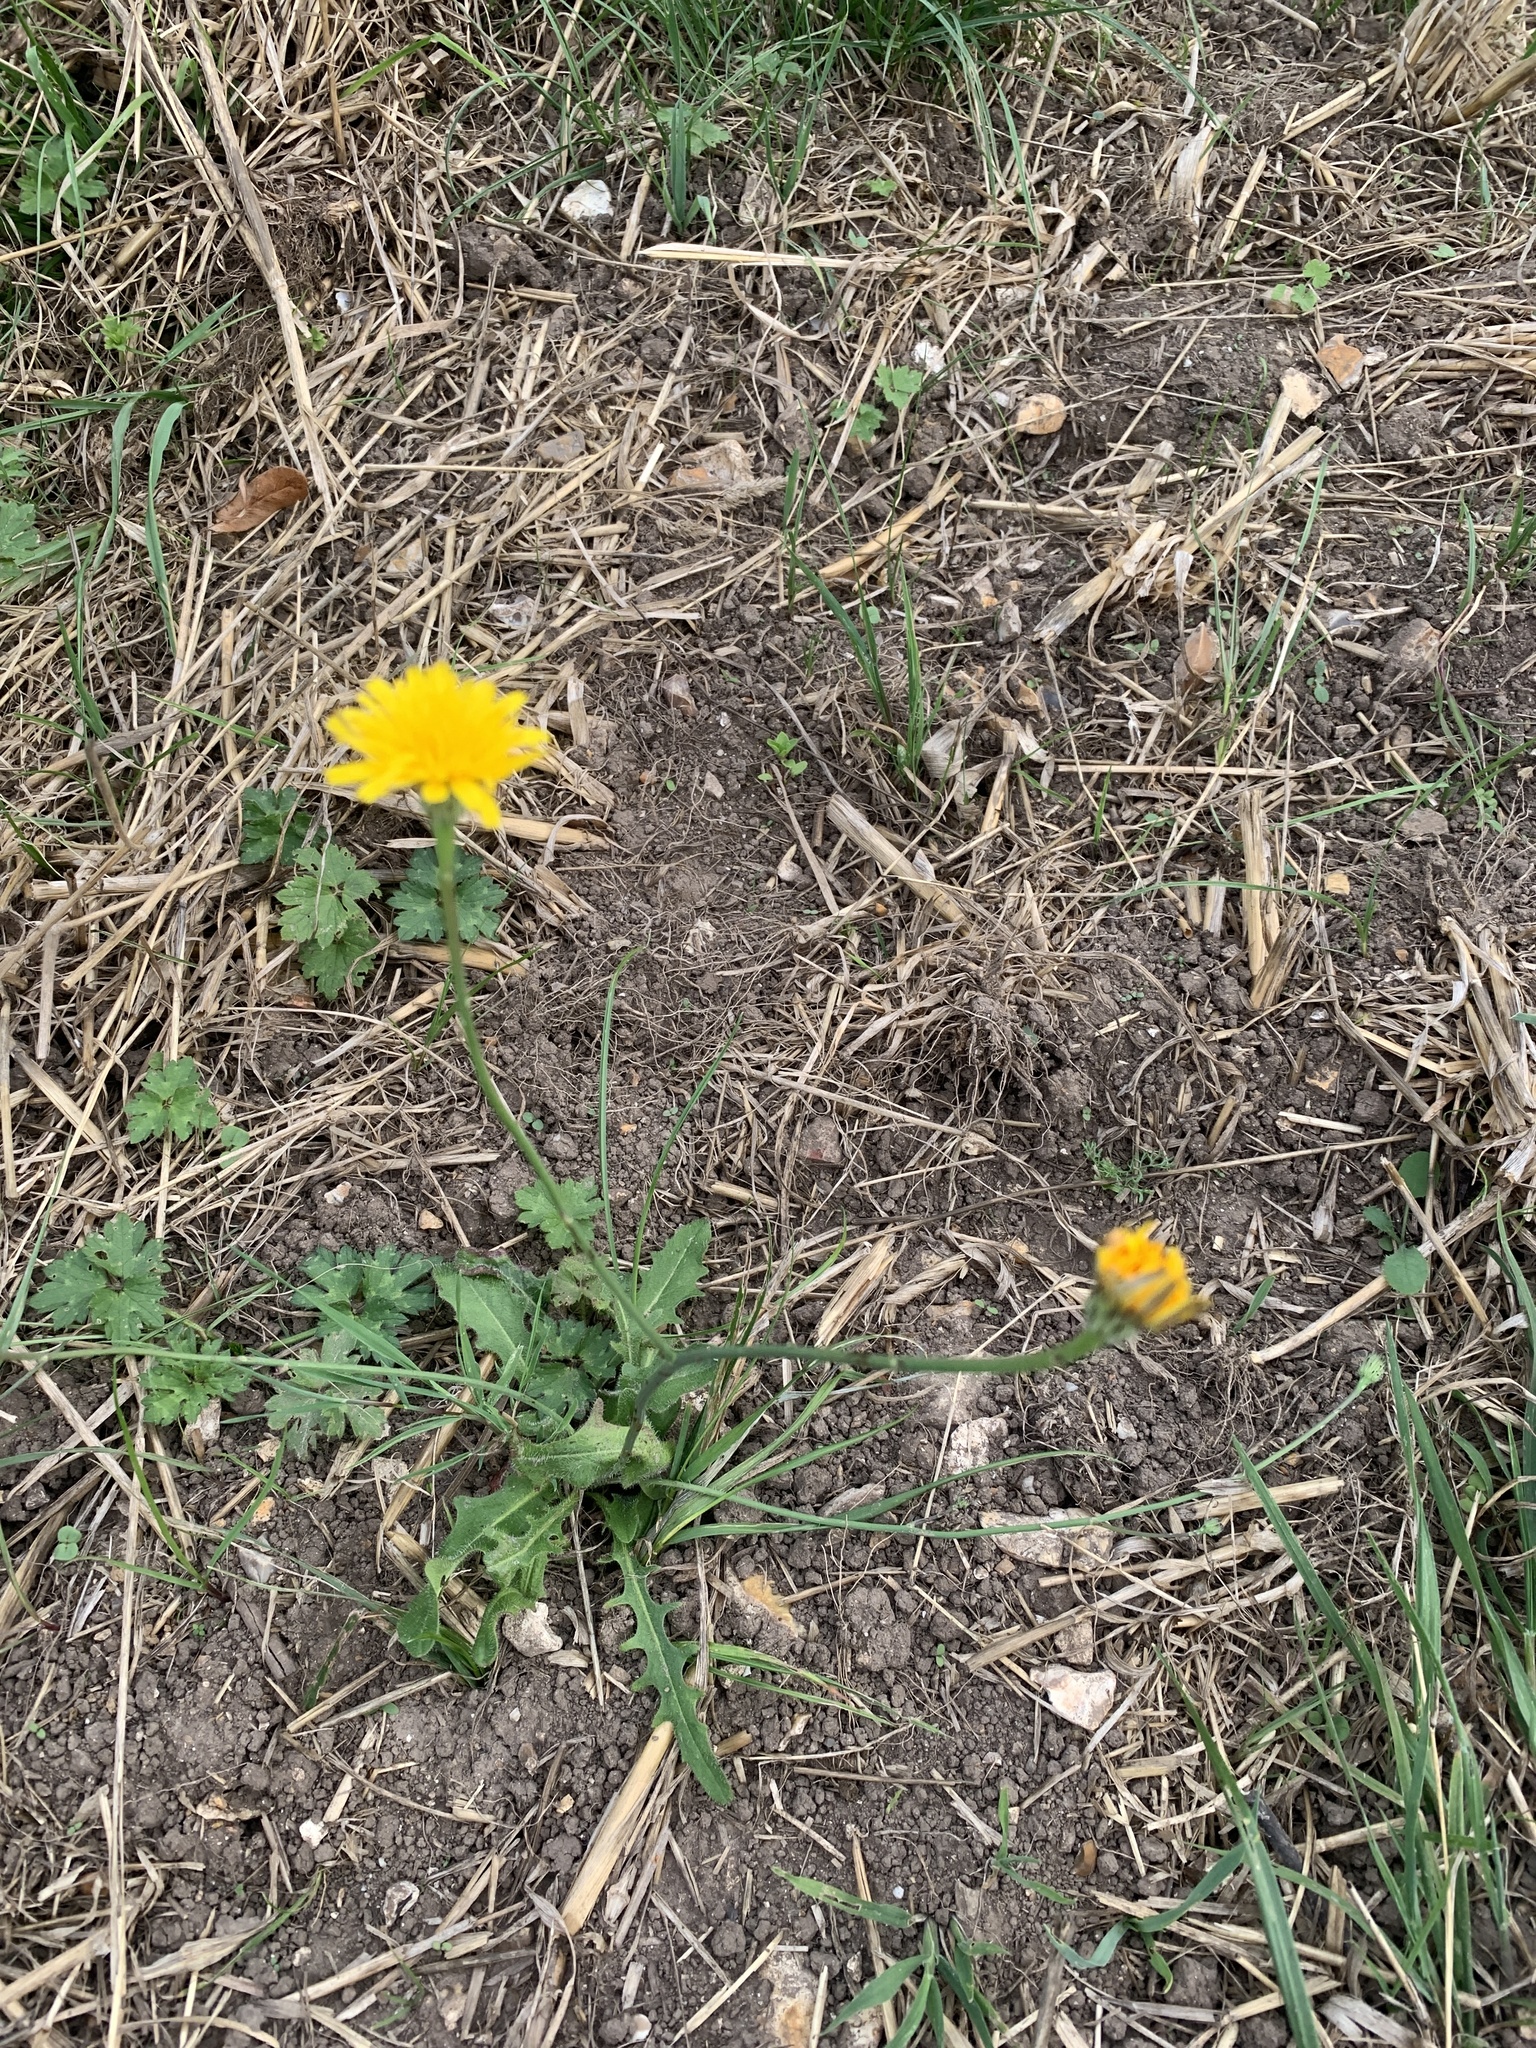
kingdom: Plantae
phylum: Tracheophyta
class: Magnoliopsida
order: Asterales
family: Asteraceae
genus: Hypochaeris
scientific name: Hypochaeris radicata
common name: Flatweed
